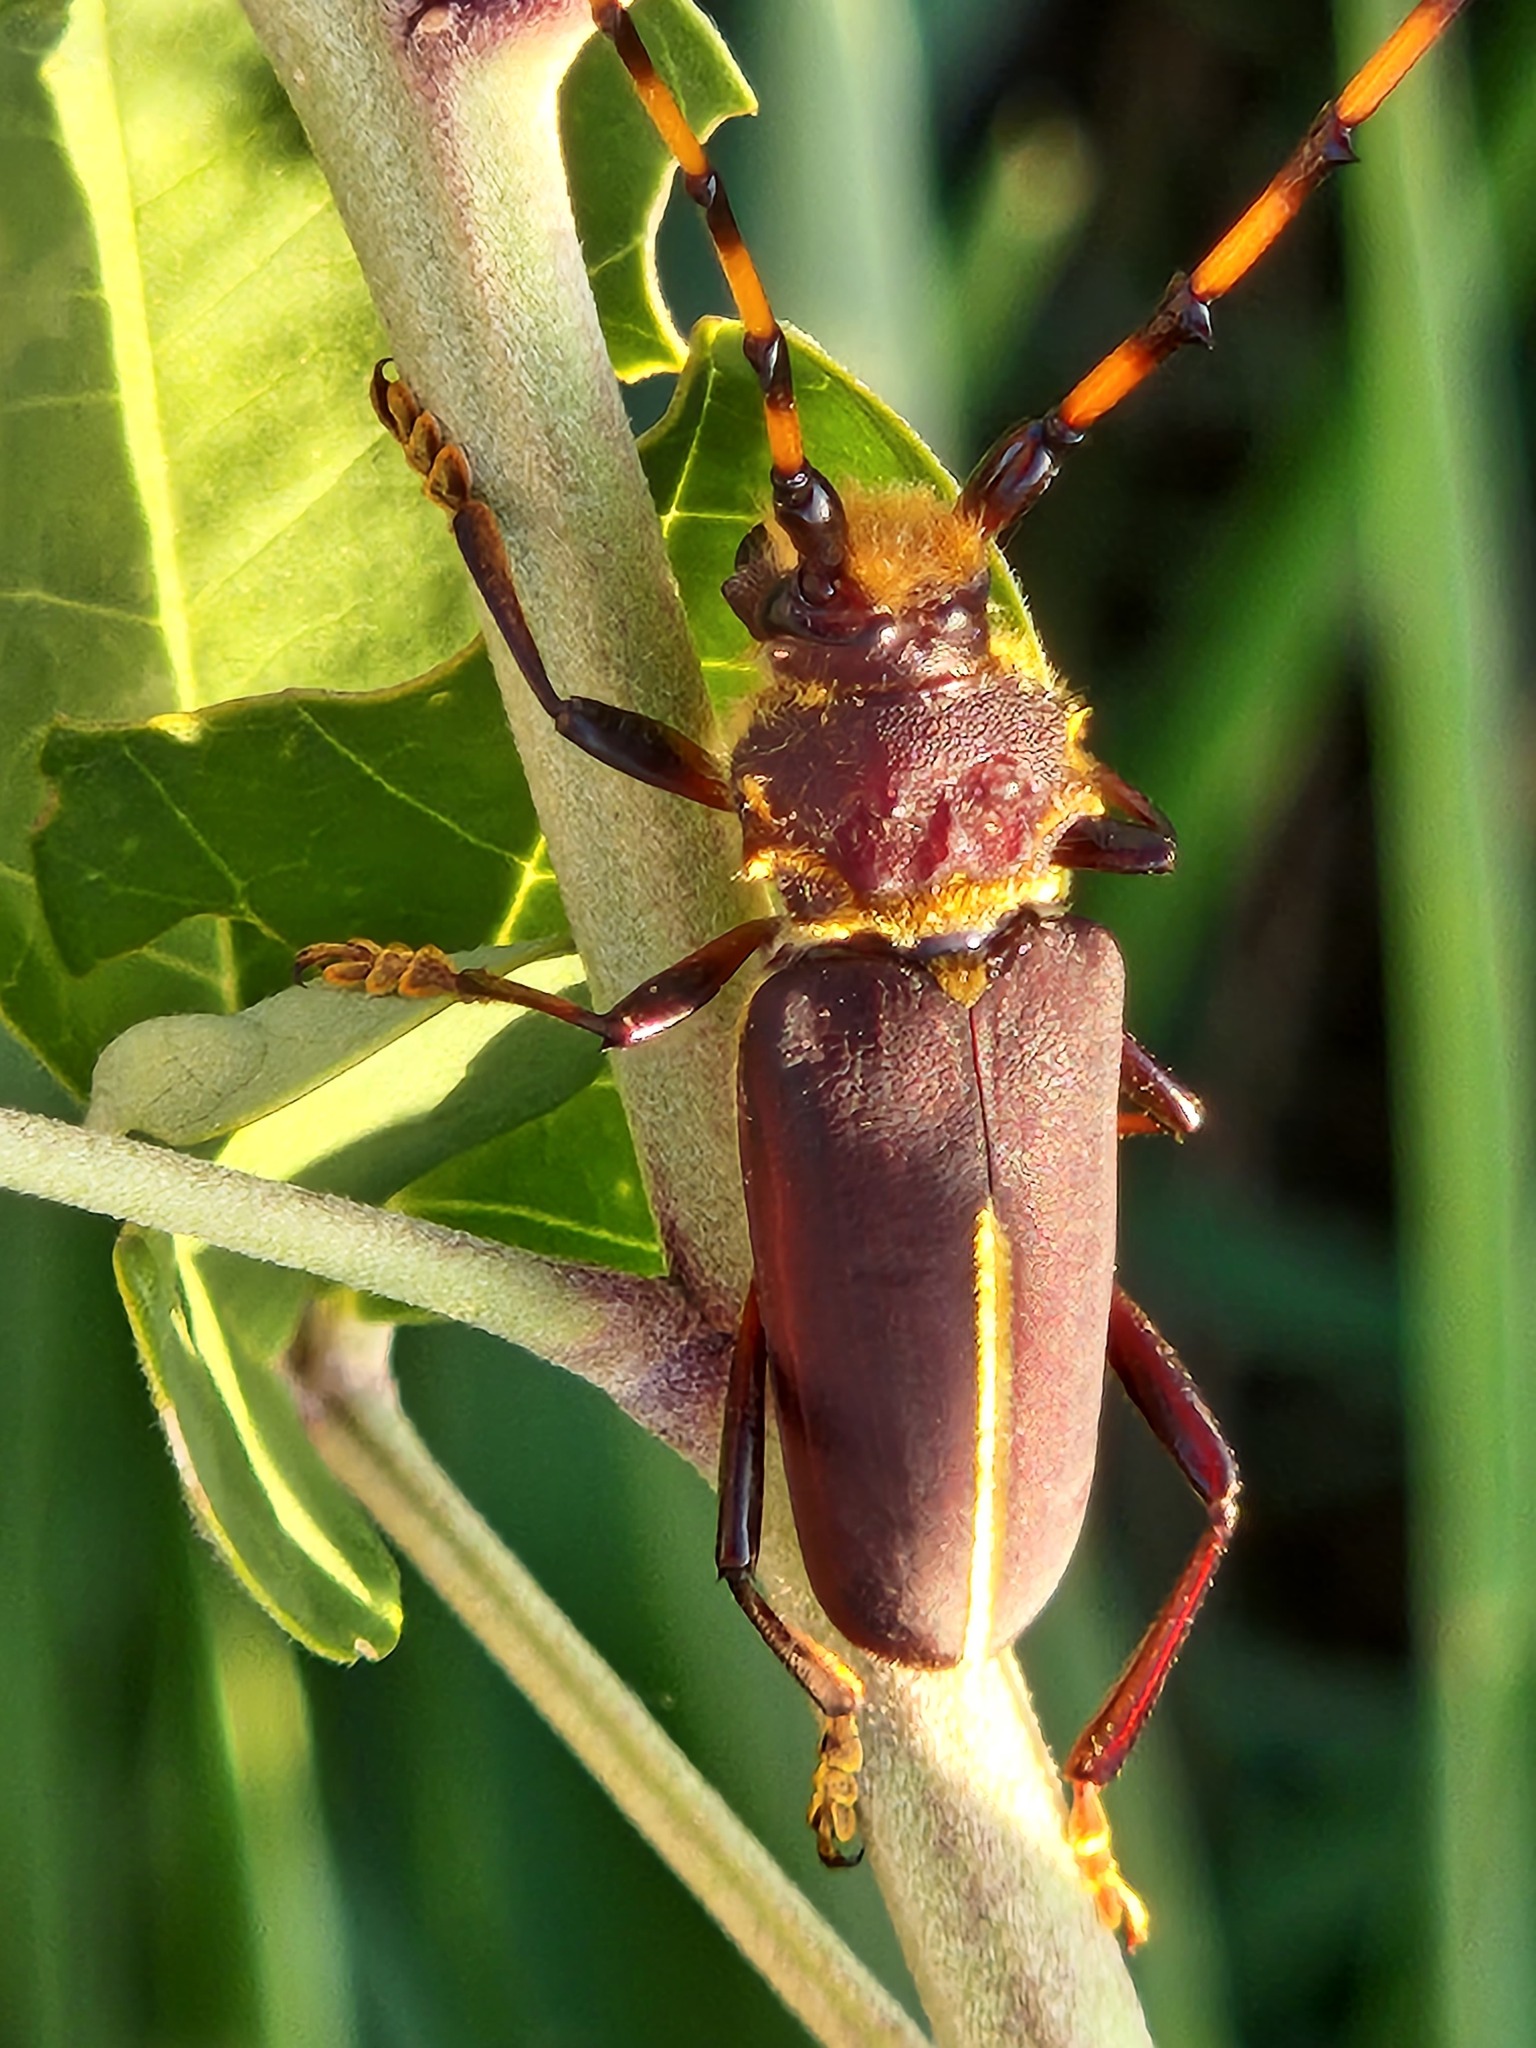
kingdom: Animalia
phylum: Arthropoda
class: Insecta
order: Coleoptera
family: Cerambycidae
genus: Dorcacerus
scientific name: Dorcacerus barbatus
